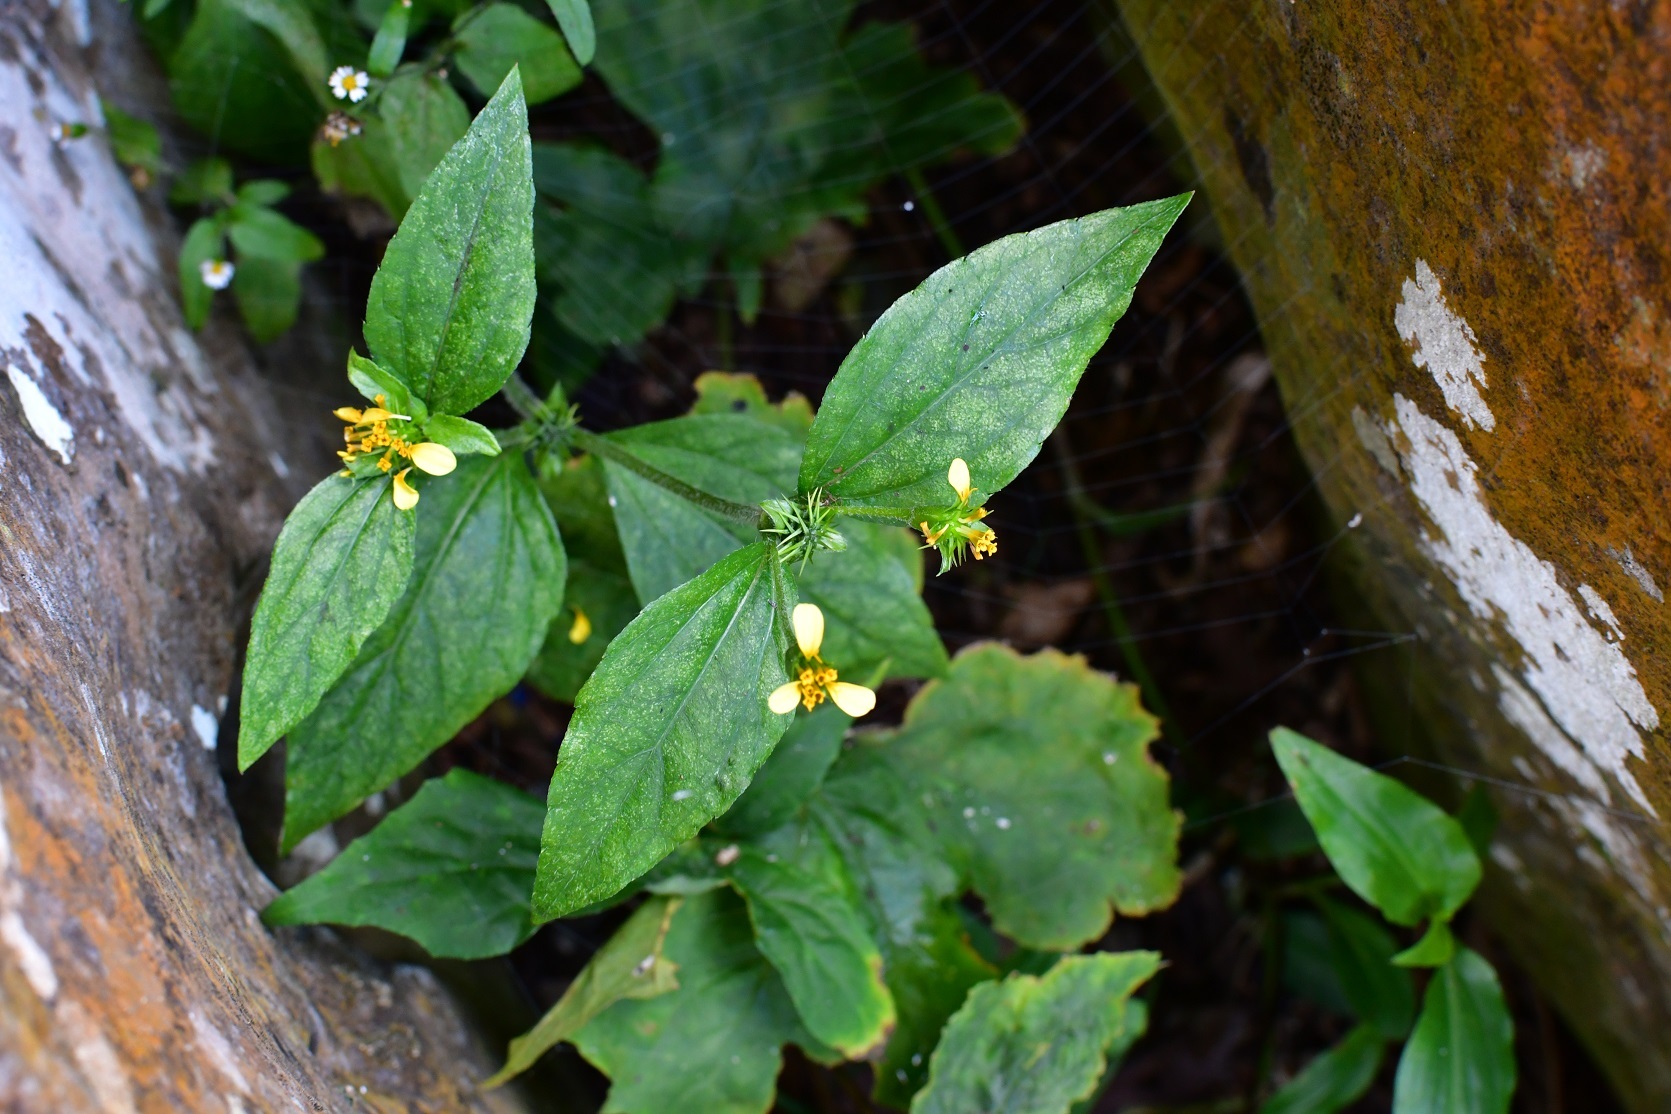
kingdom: Plantae
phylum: Tracheophyta
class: Magnoliopsida
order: Asterales
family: Asteraceae
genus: Calyptocarpus
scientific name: Calyptocarpus wendlandii
